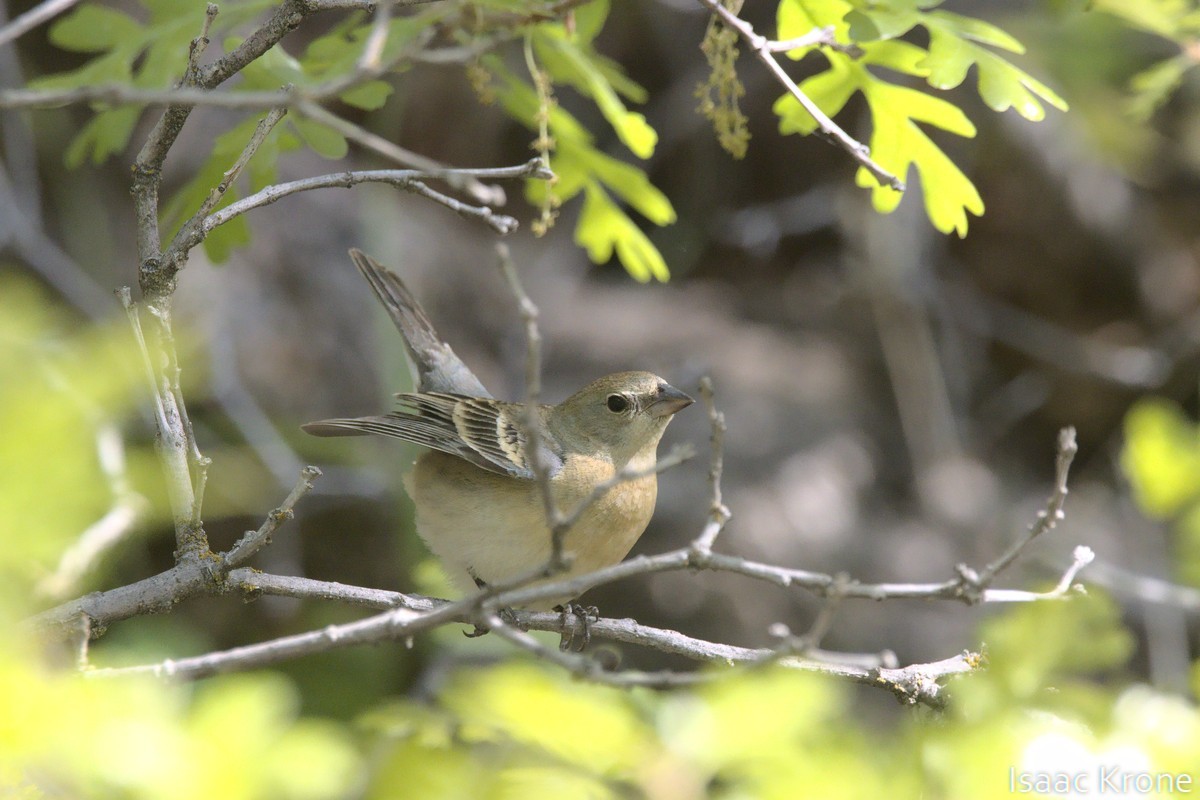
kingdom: Animalia
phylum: Chordata
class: Aves
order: Passeriformes
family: Cardinalidae
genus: Passerina
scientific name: Passerina amoena
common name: Lazuli bunting
